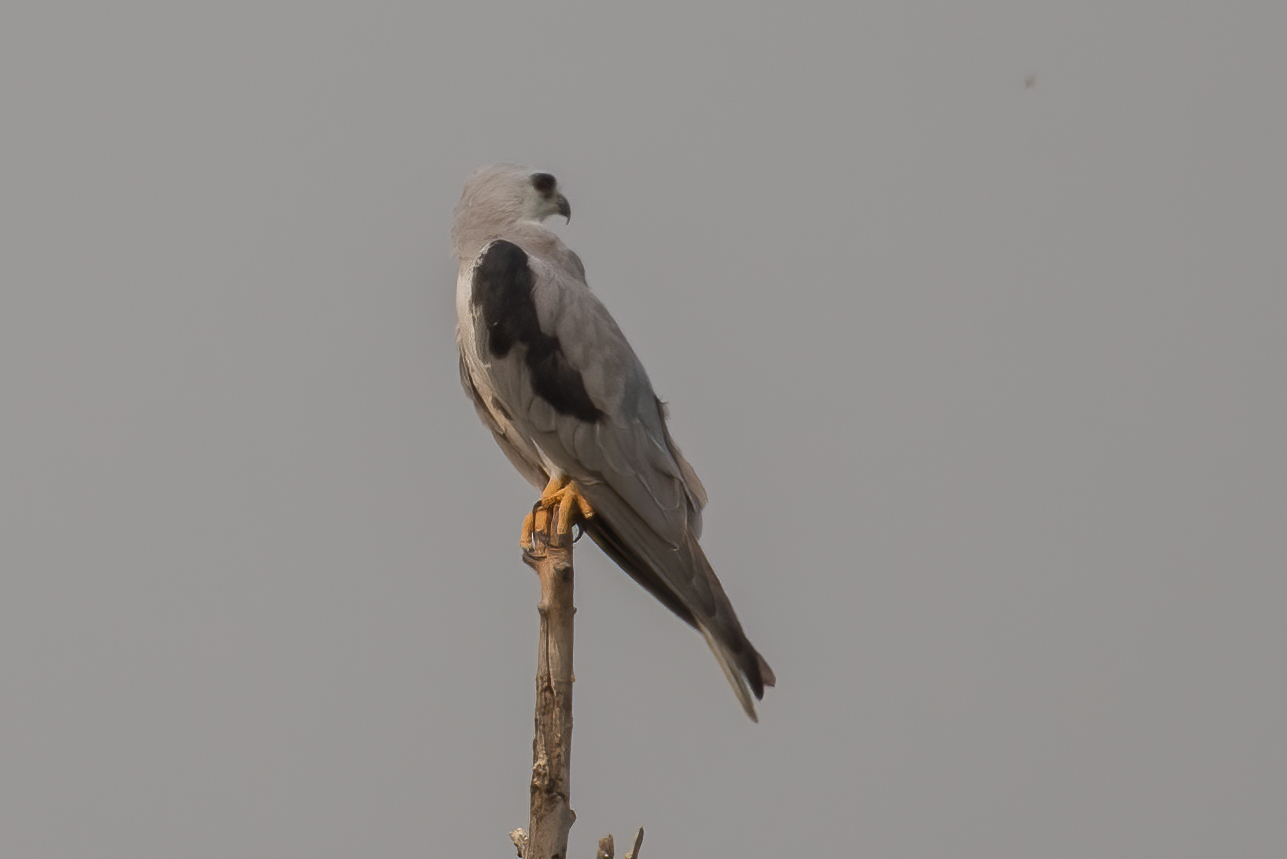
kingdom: Animalia
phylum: Chordata
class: Aves
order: Accipitriformes
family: Accipitridae
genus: Elanus
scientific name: Elanus leucurus
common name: White-tailed kite
